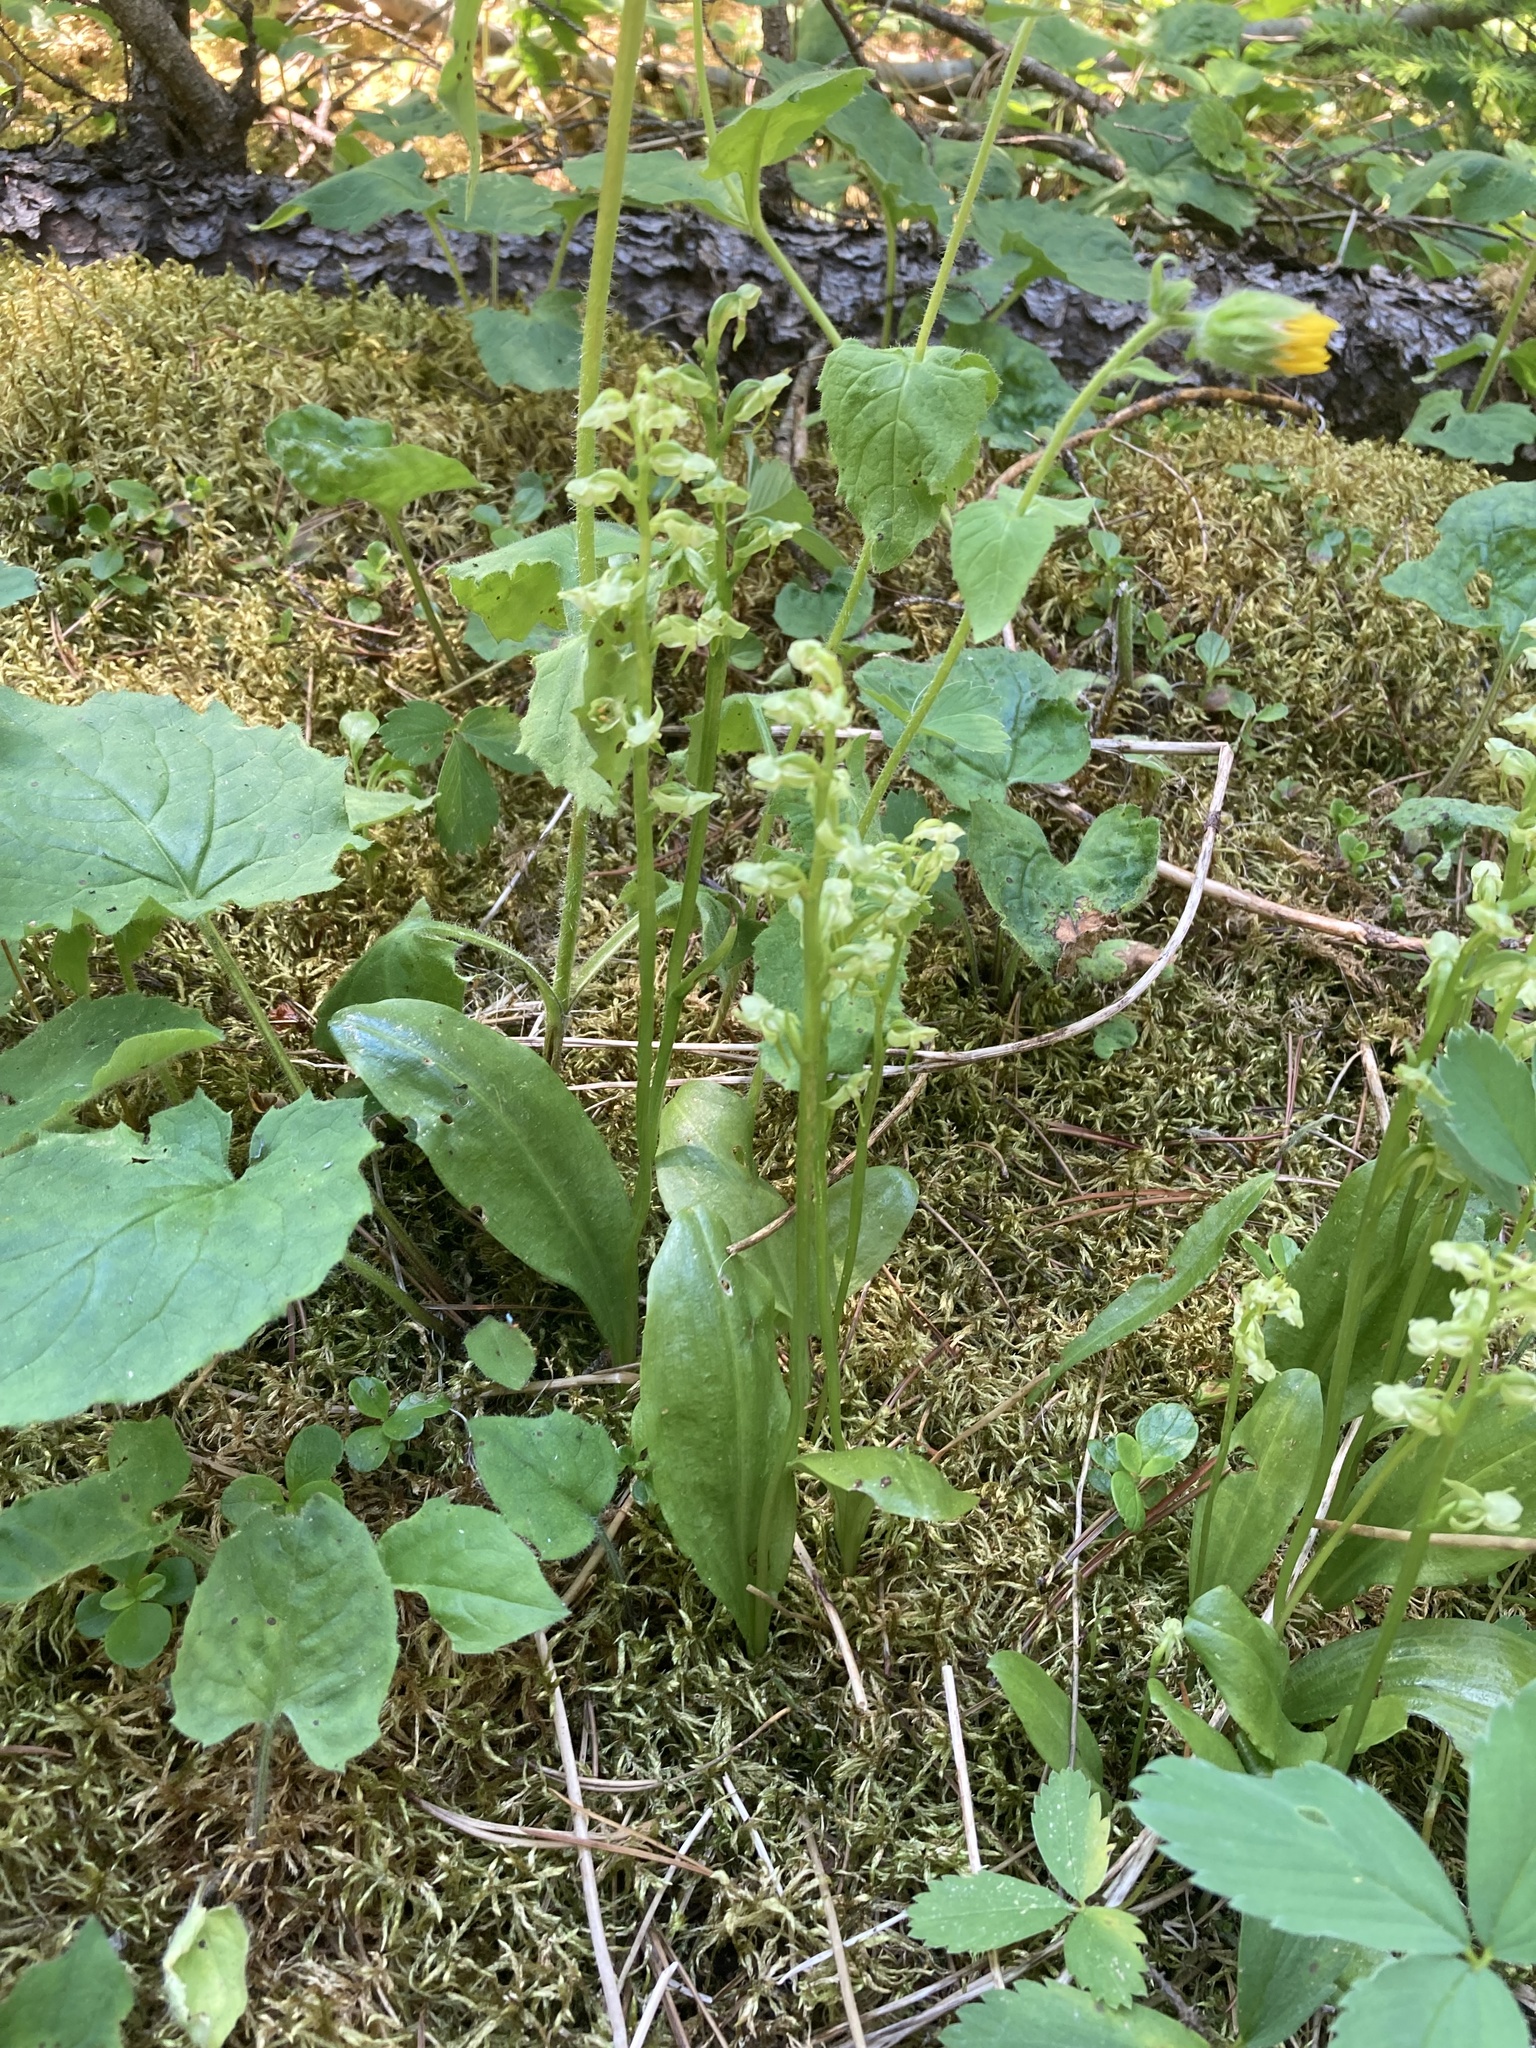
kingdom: Plantae
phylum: Tracheophyta
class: Liliopsida
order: Asparagales
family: Orchidaceae
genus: Platanthera
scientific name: Platanthera obtusata
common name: Blunt bog orchid
